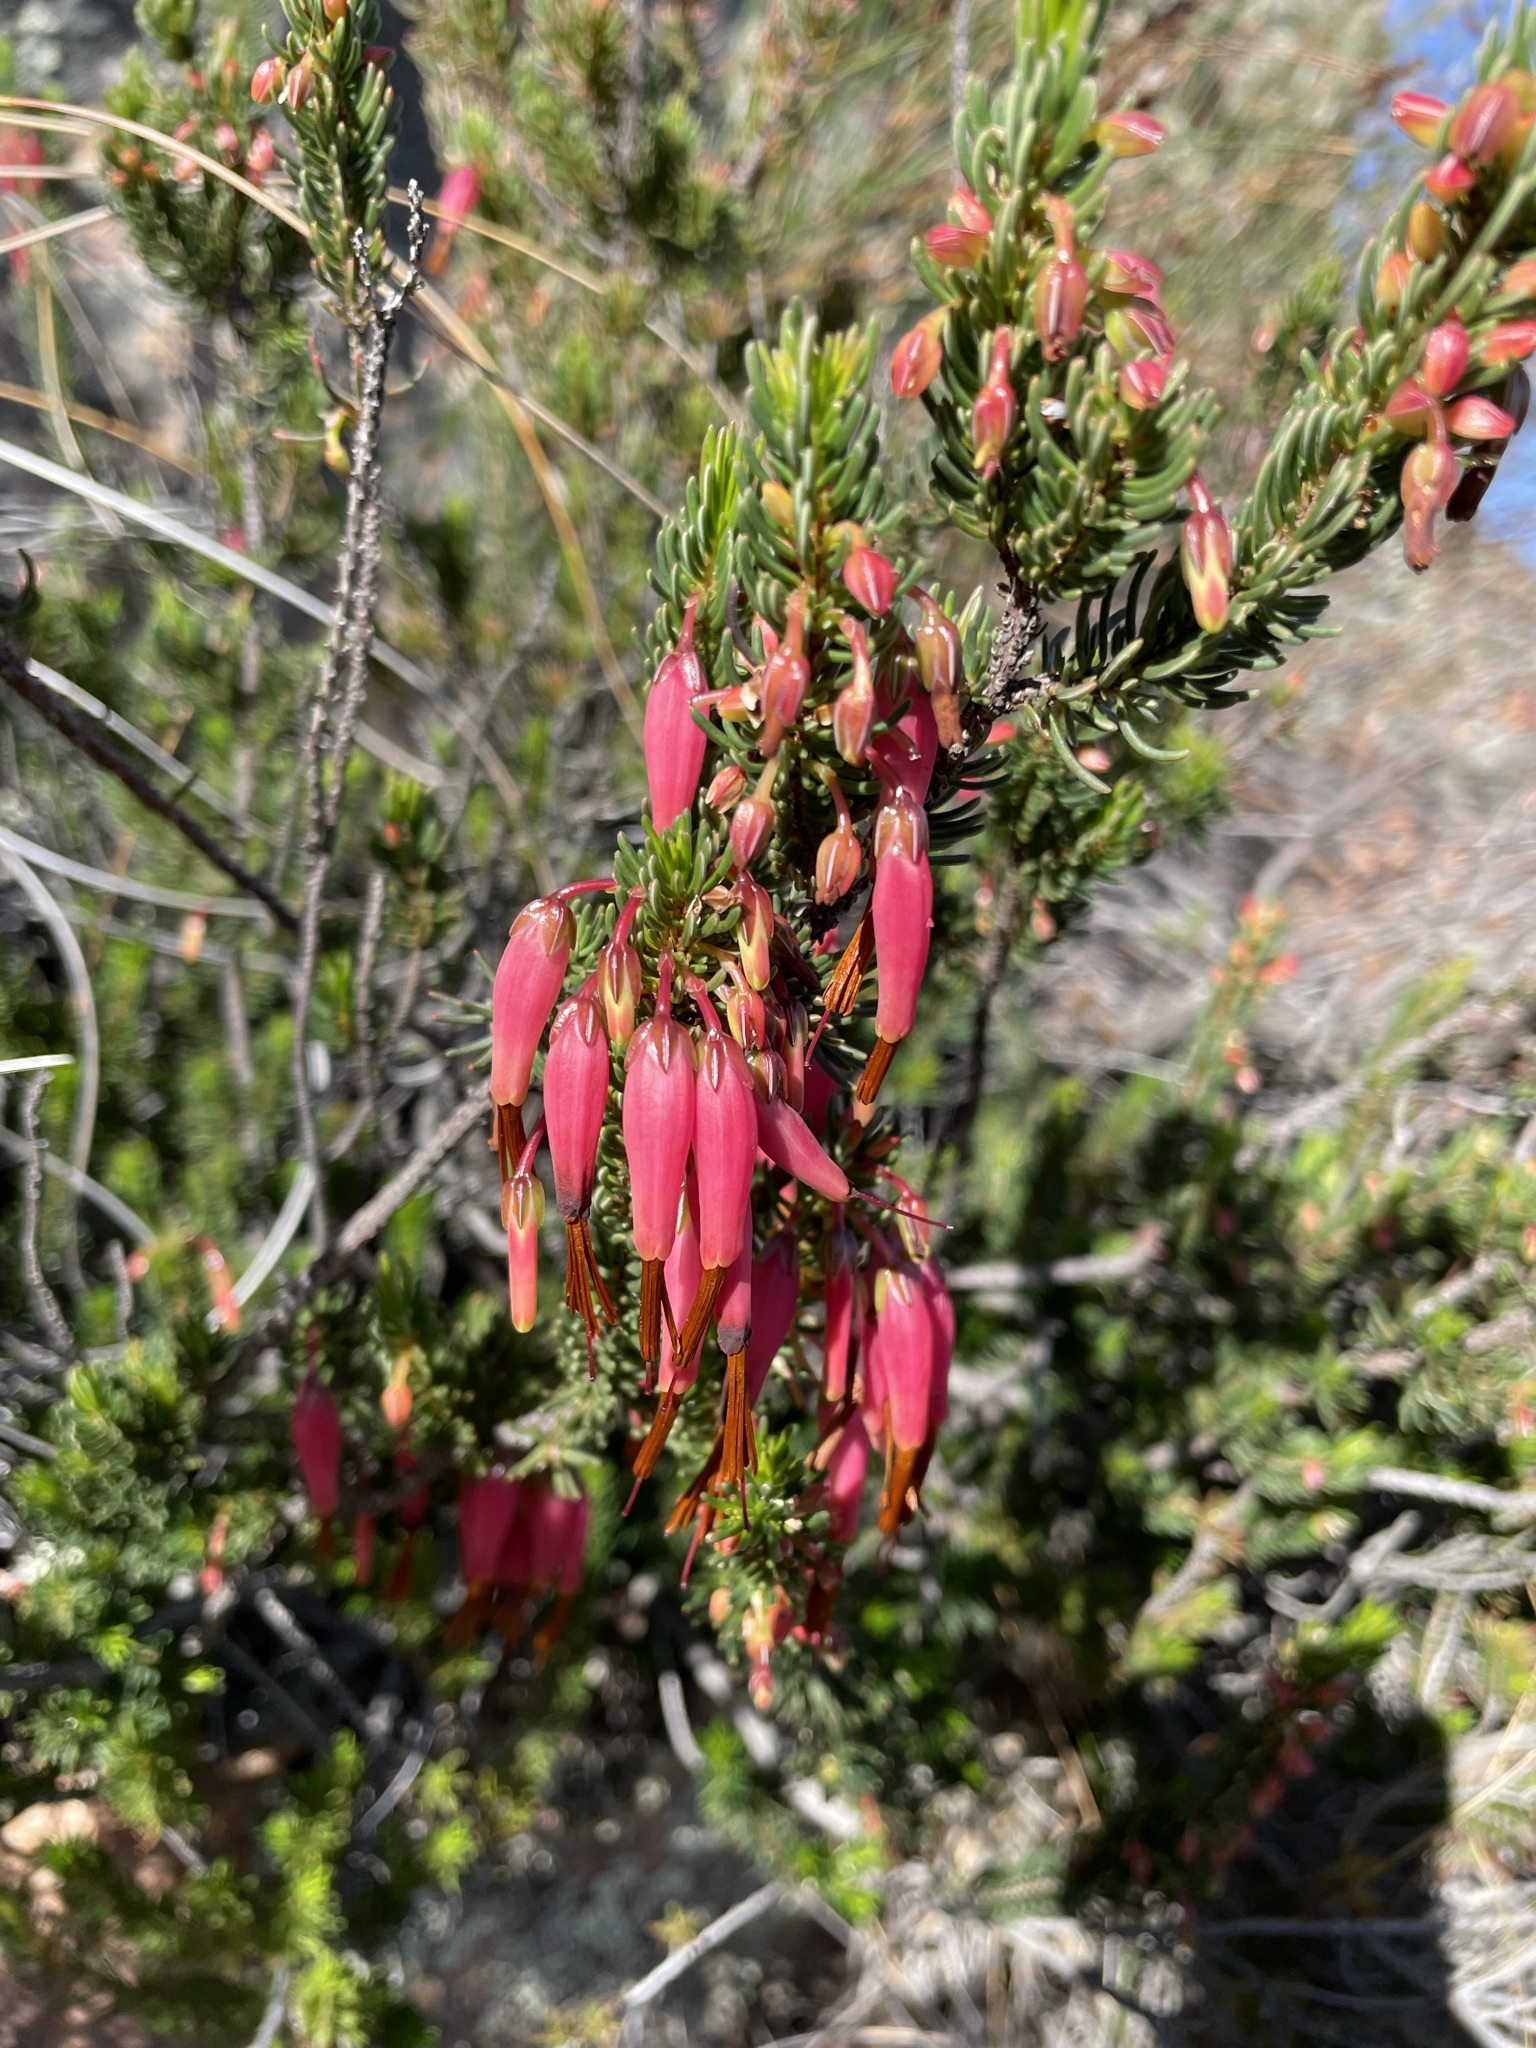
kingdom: Plantae
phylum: Tracheophyta
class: Magnoliopsida
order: Ericales
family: Ericaceae
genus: Erica
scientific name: Erica plukenetii
